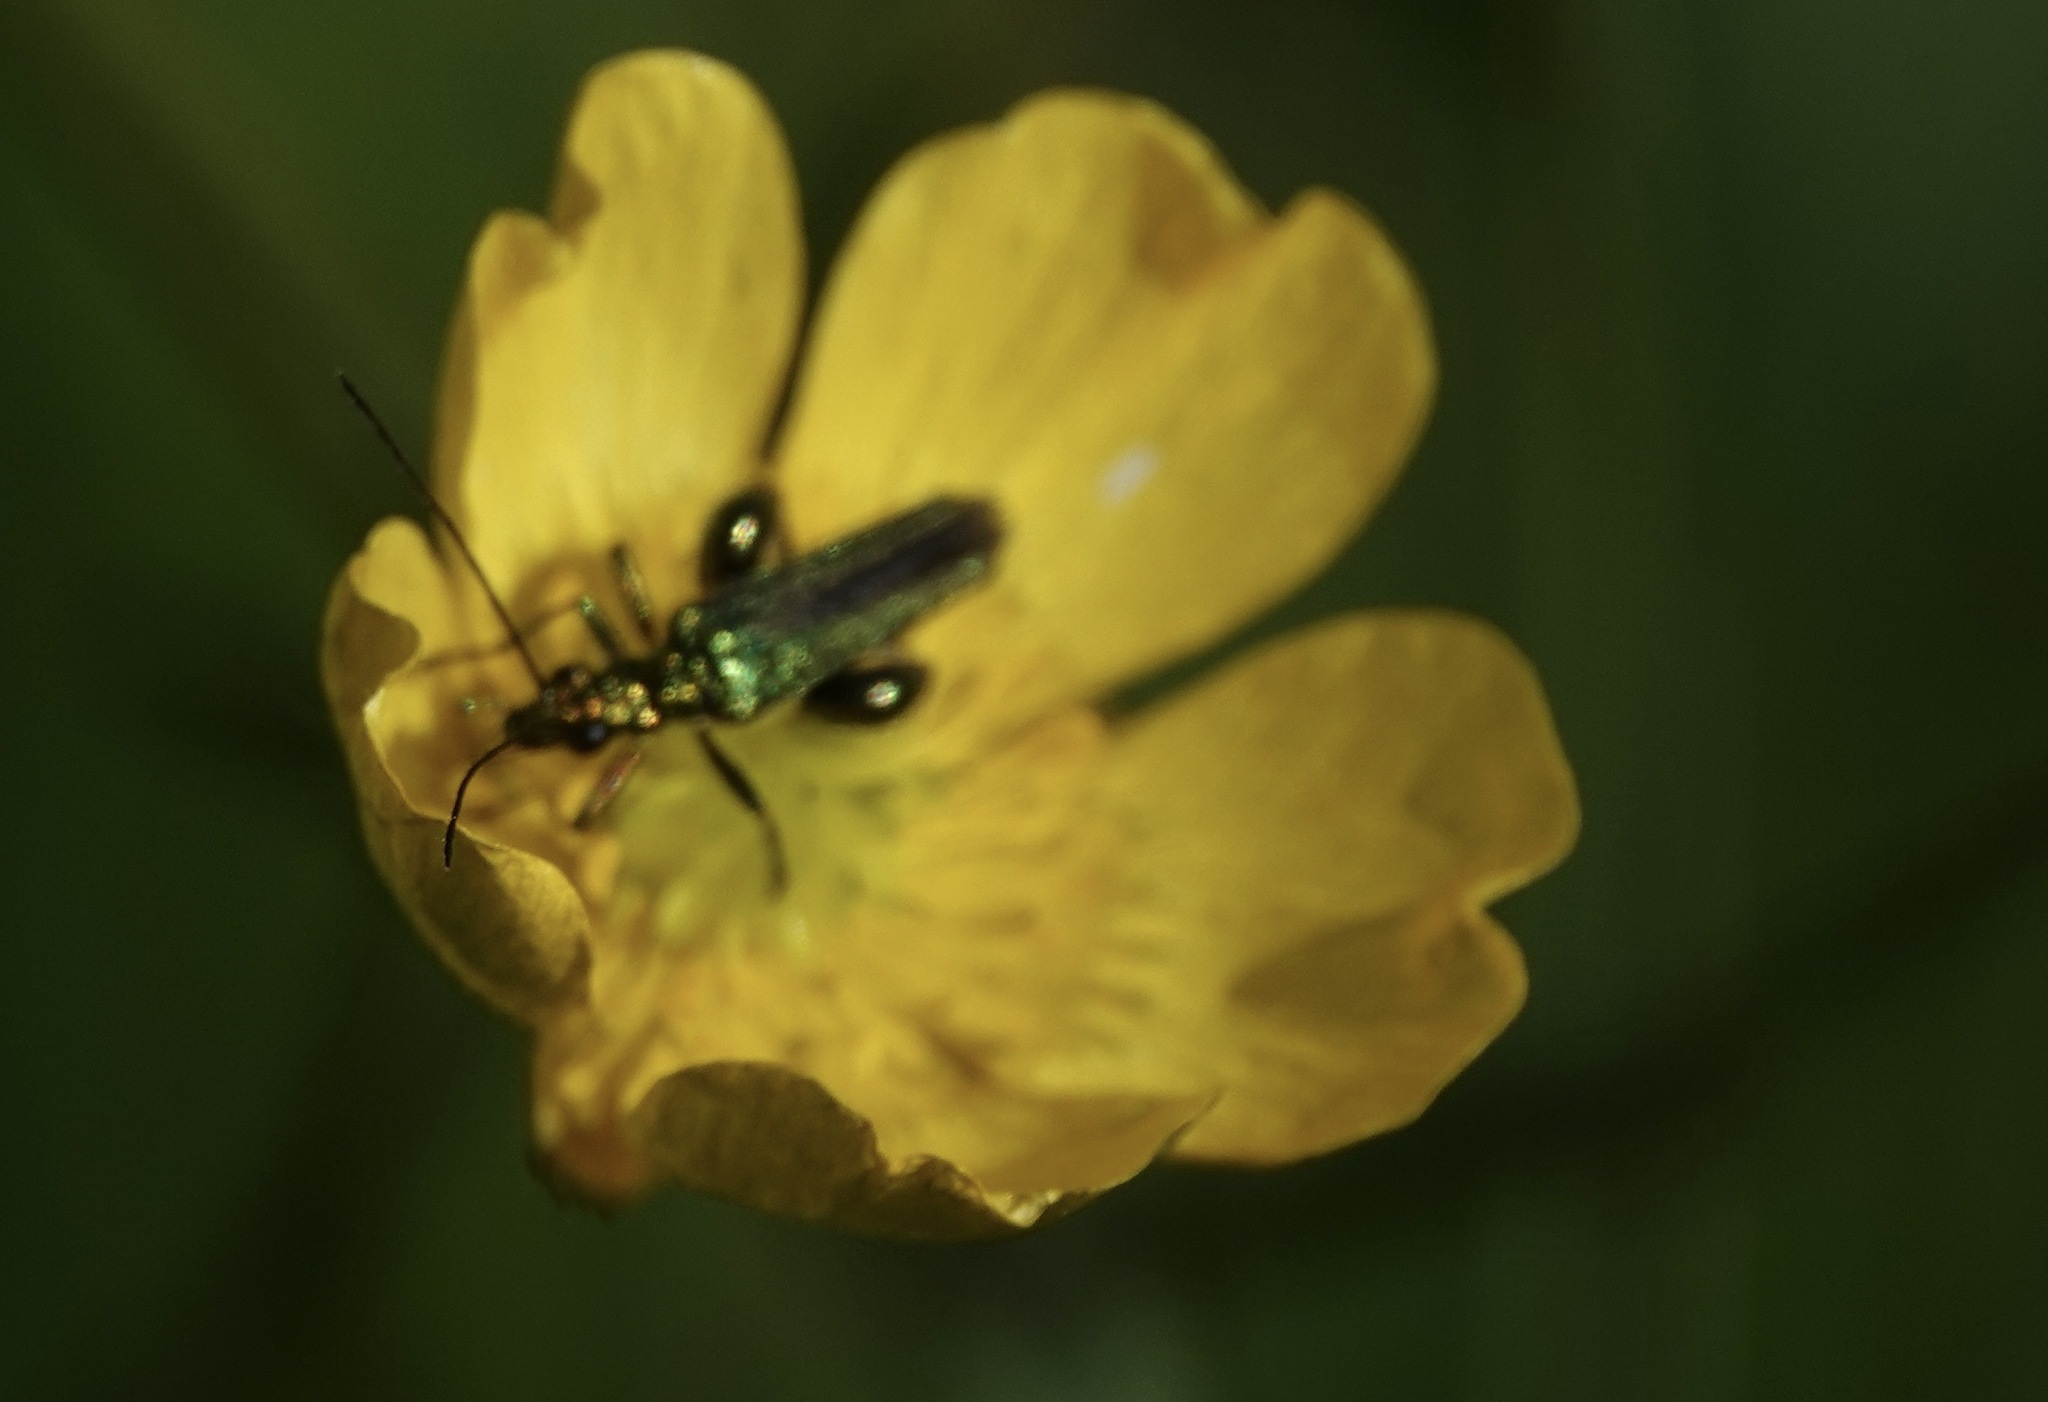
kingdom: Animalia
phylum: Arthropoda
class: Insecta
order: Coleoptera
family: Oedemeridae
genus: Oedemera
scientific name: Oedemera nobilis
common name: Swollen-thighed beetle
